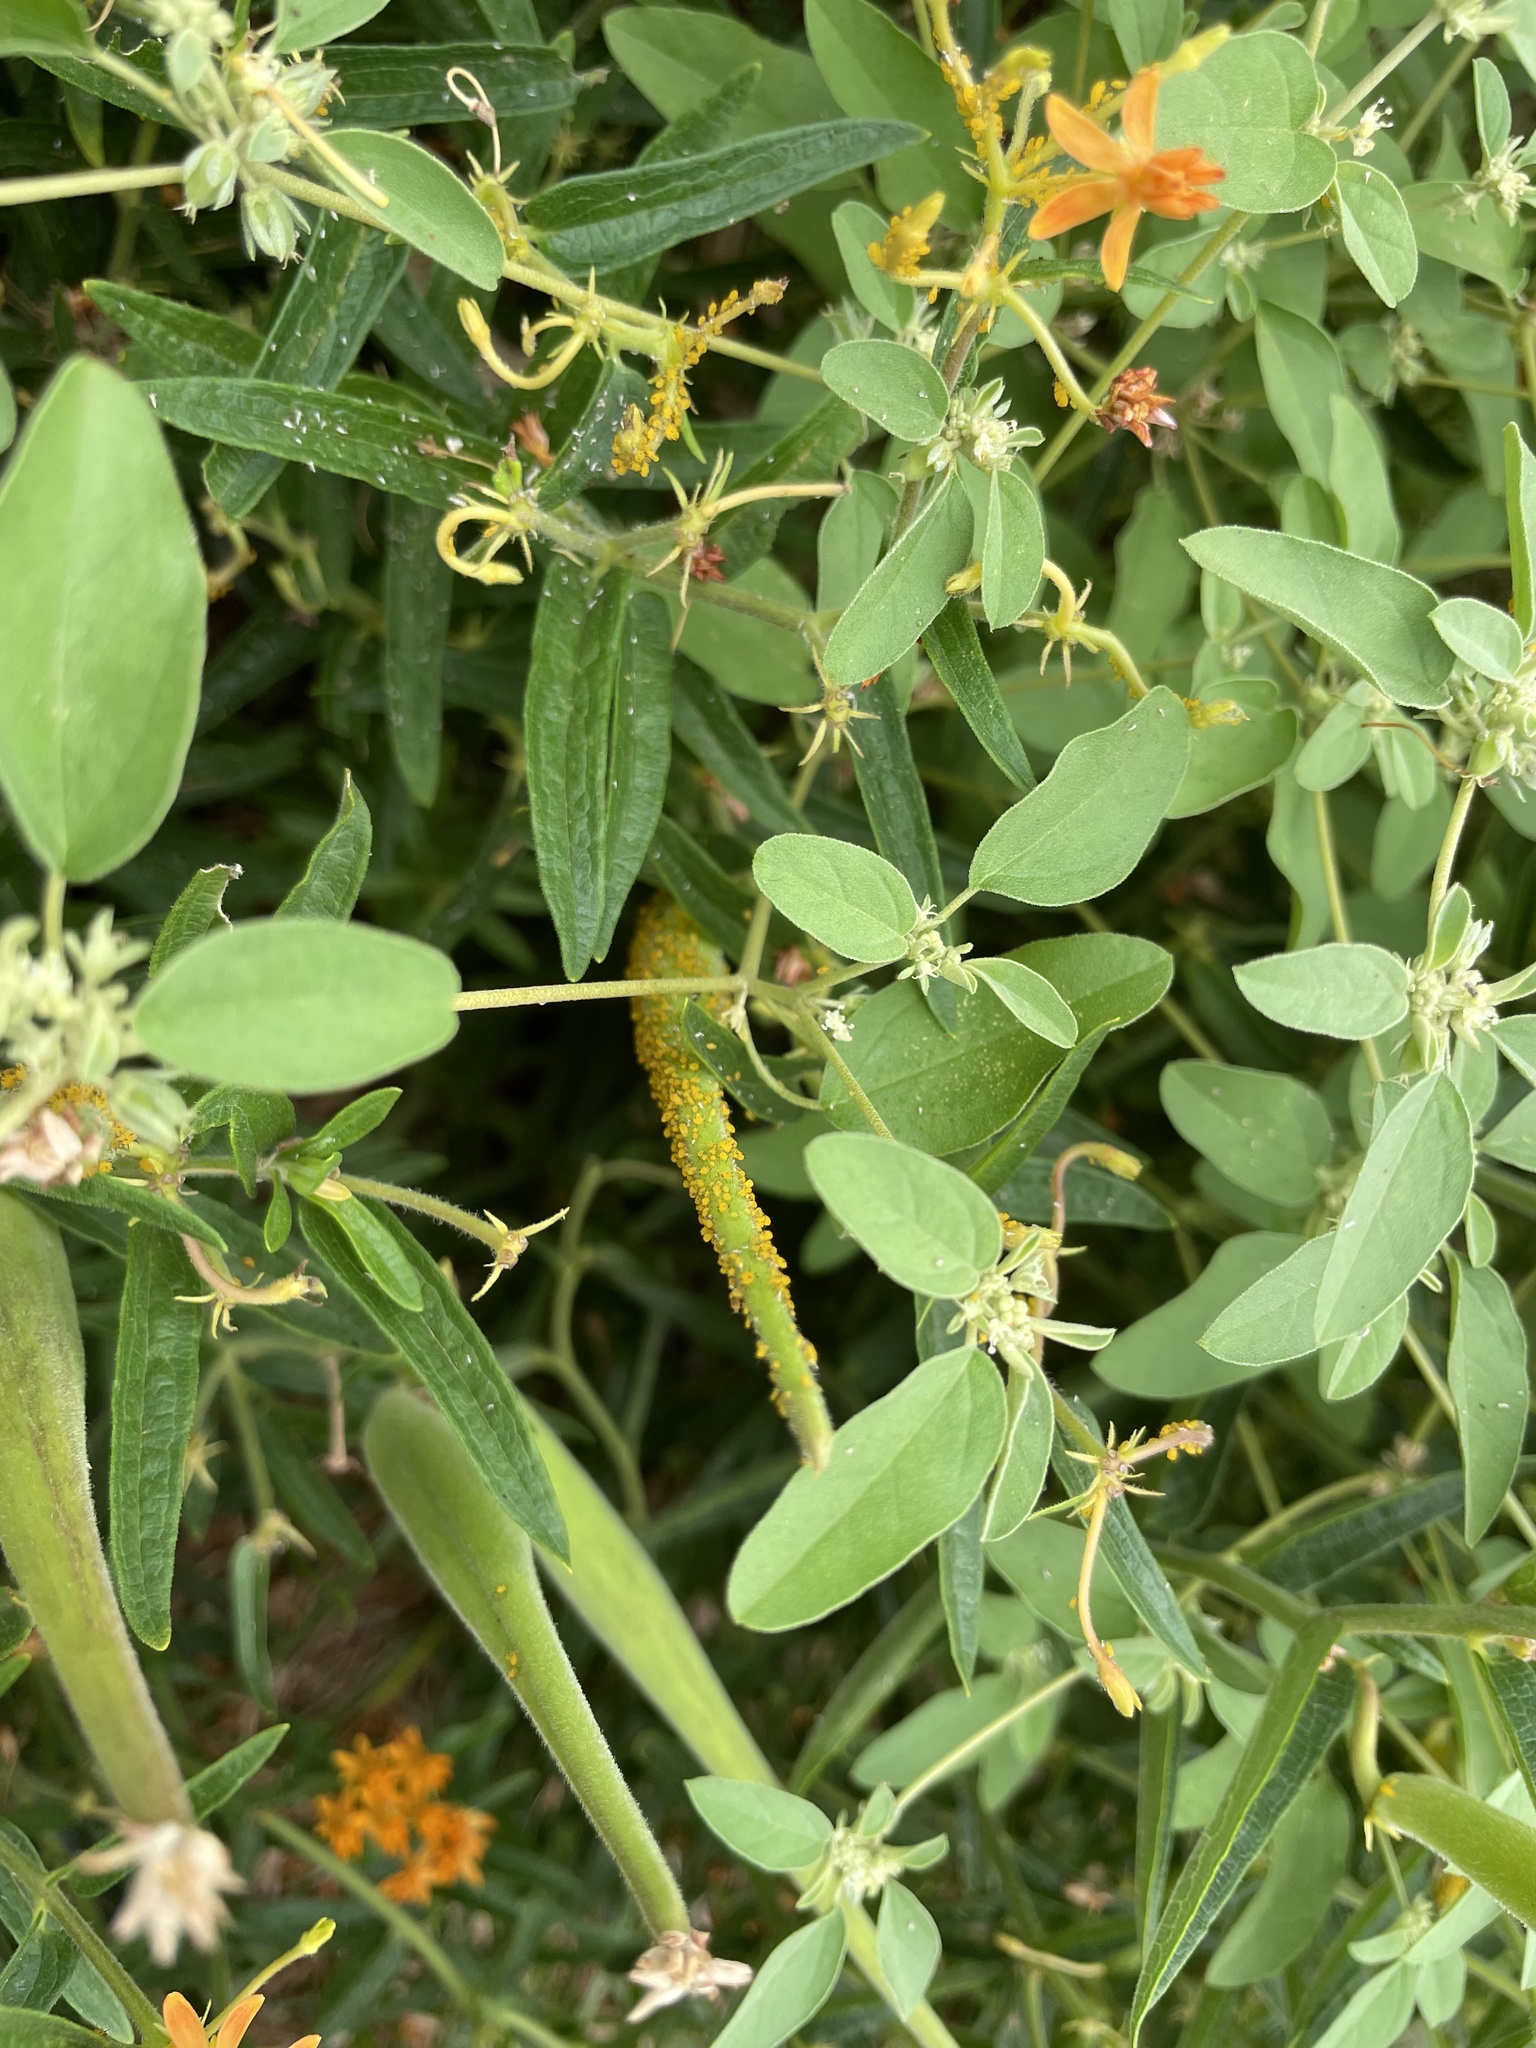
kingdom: Animalia
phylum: Arthropoda
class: Insecta
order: Hemiptera
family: Aphididae
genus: Aphis
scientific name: Aphis nerii
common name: Oleander aphid
